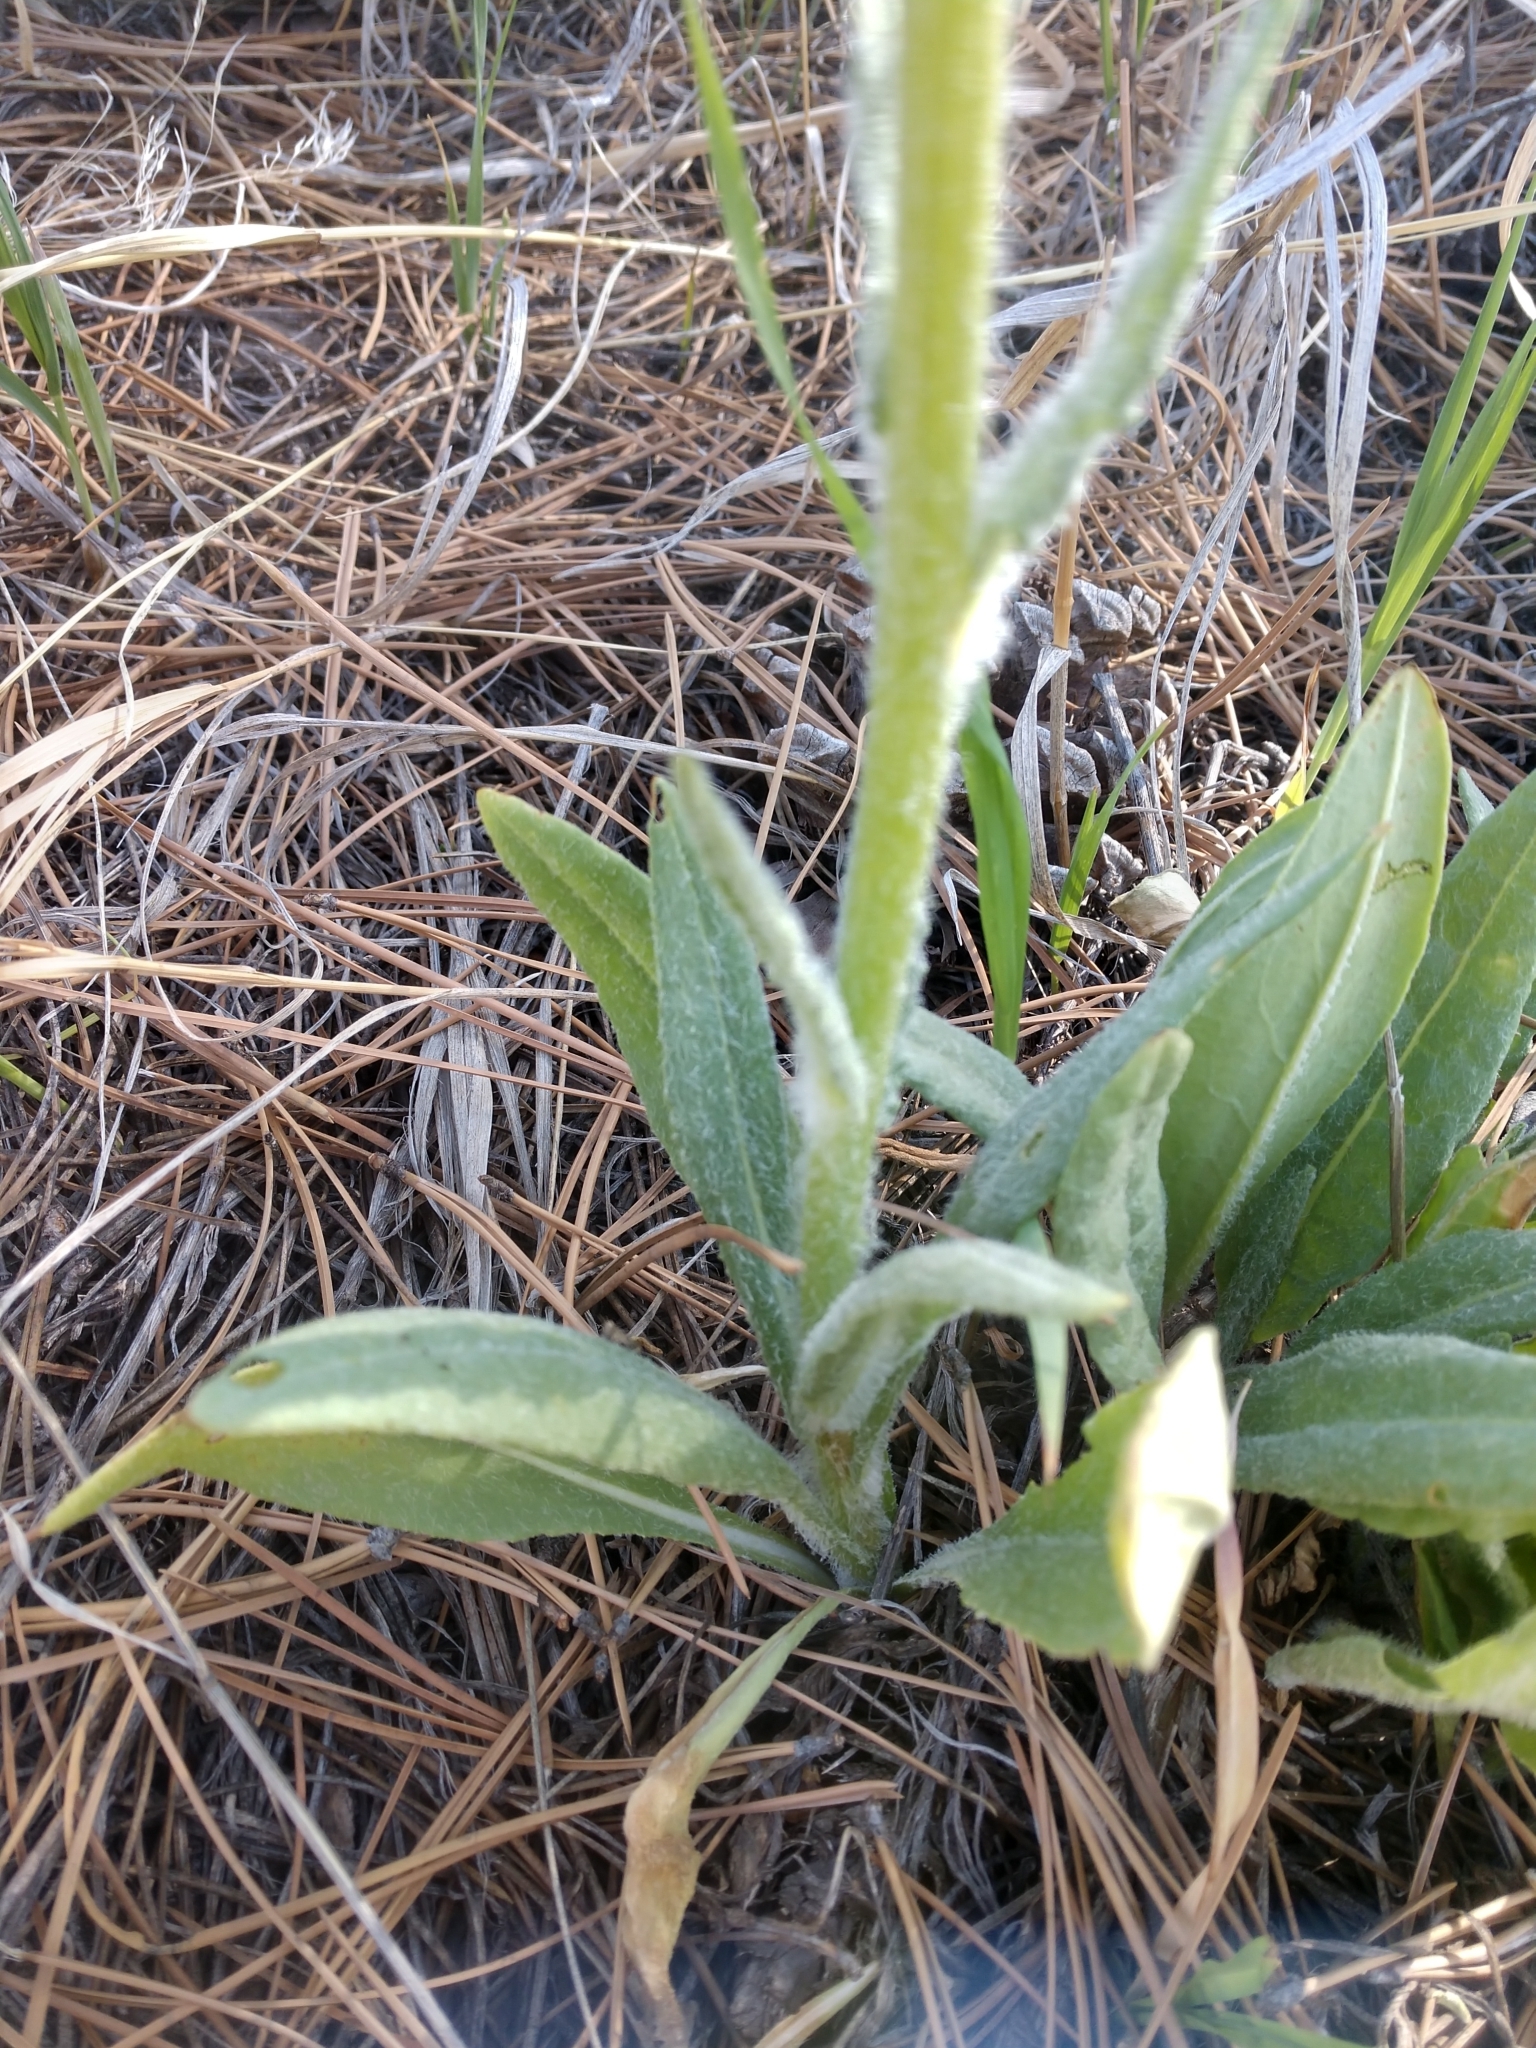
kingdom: Plantae
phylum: Tracheophyta
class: Magnoliopsida
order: Asterales
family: Asteraceae
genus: Senecio
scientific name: Senecio integerrimus
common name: Gaugeplant
